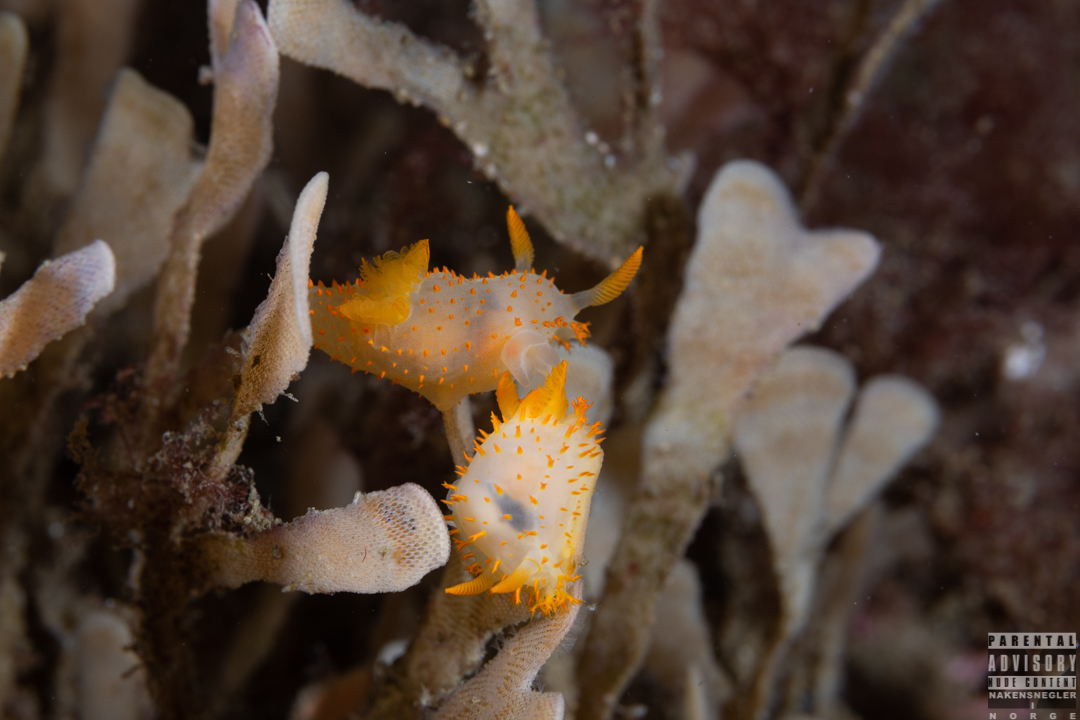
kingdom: Animalia
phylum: Mollusca
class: Gastropoda
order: Nudibranchia
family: Polyceridae
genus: Crimora
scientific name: Crimora papillata
